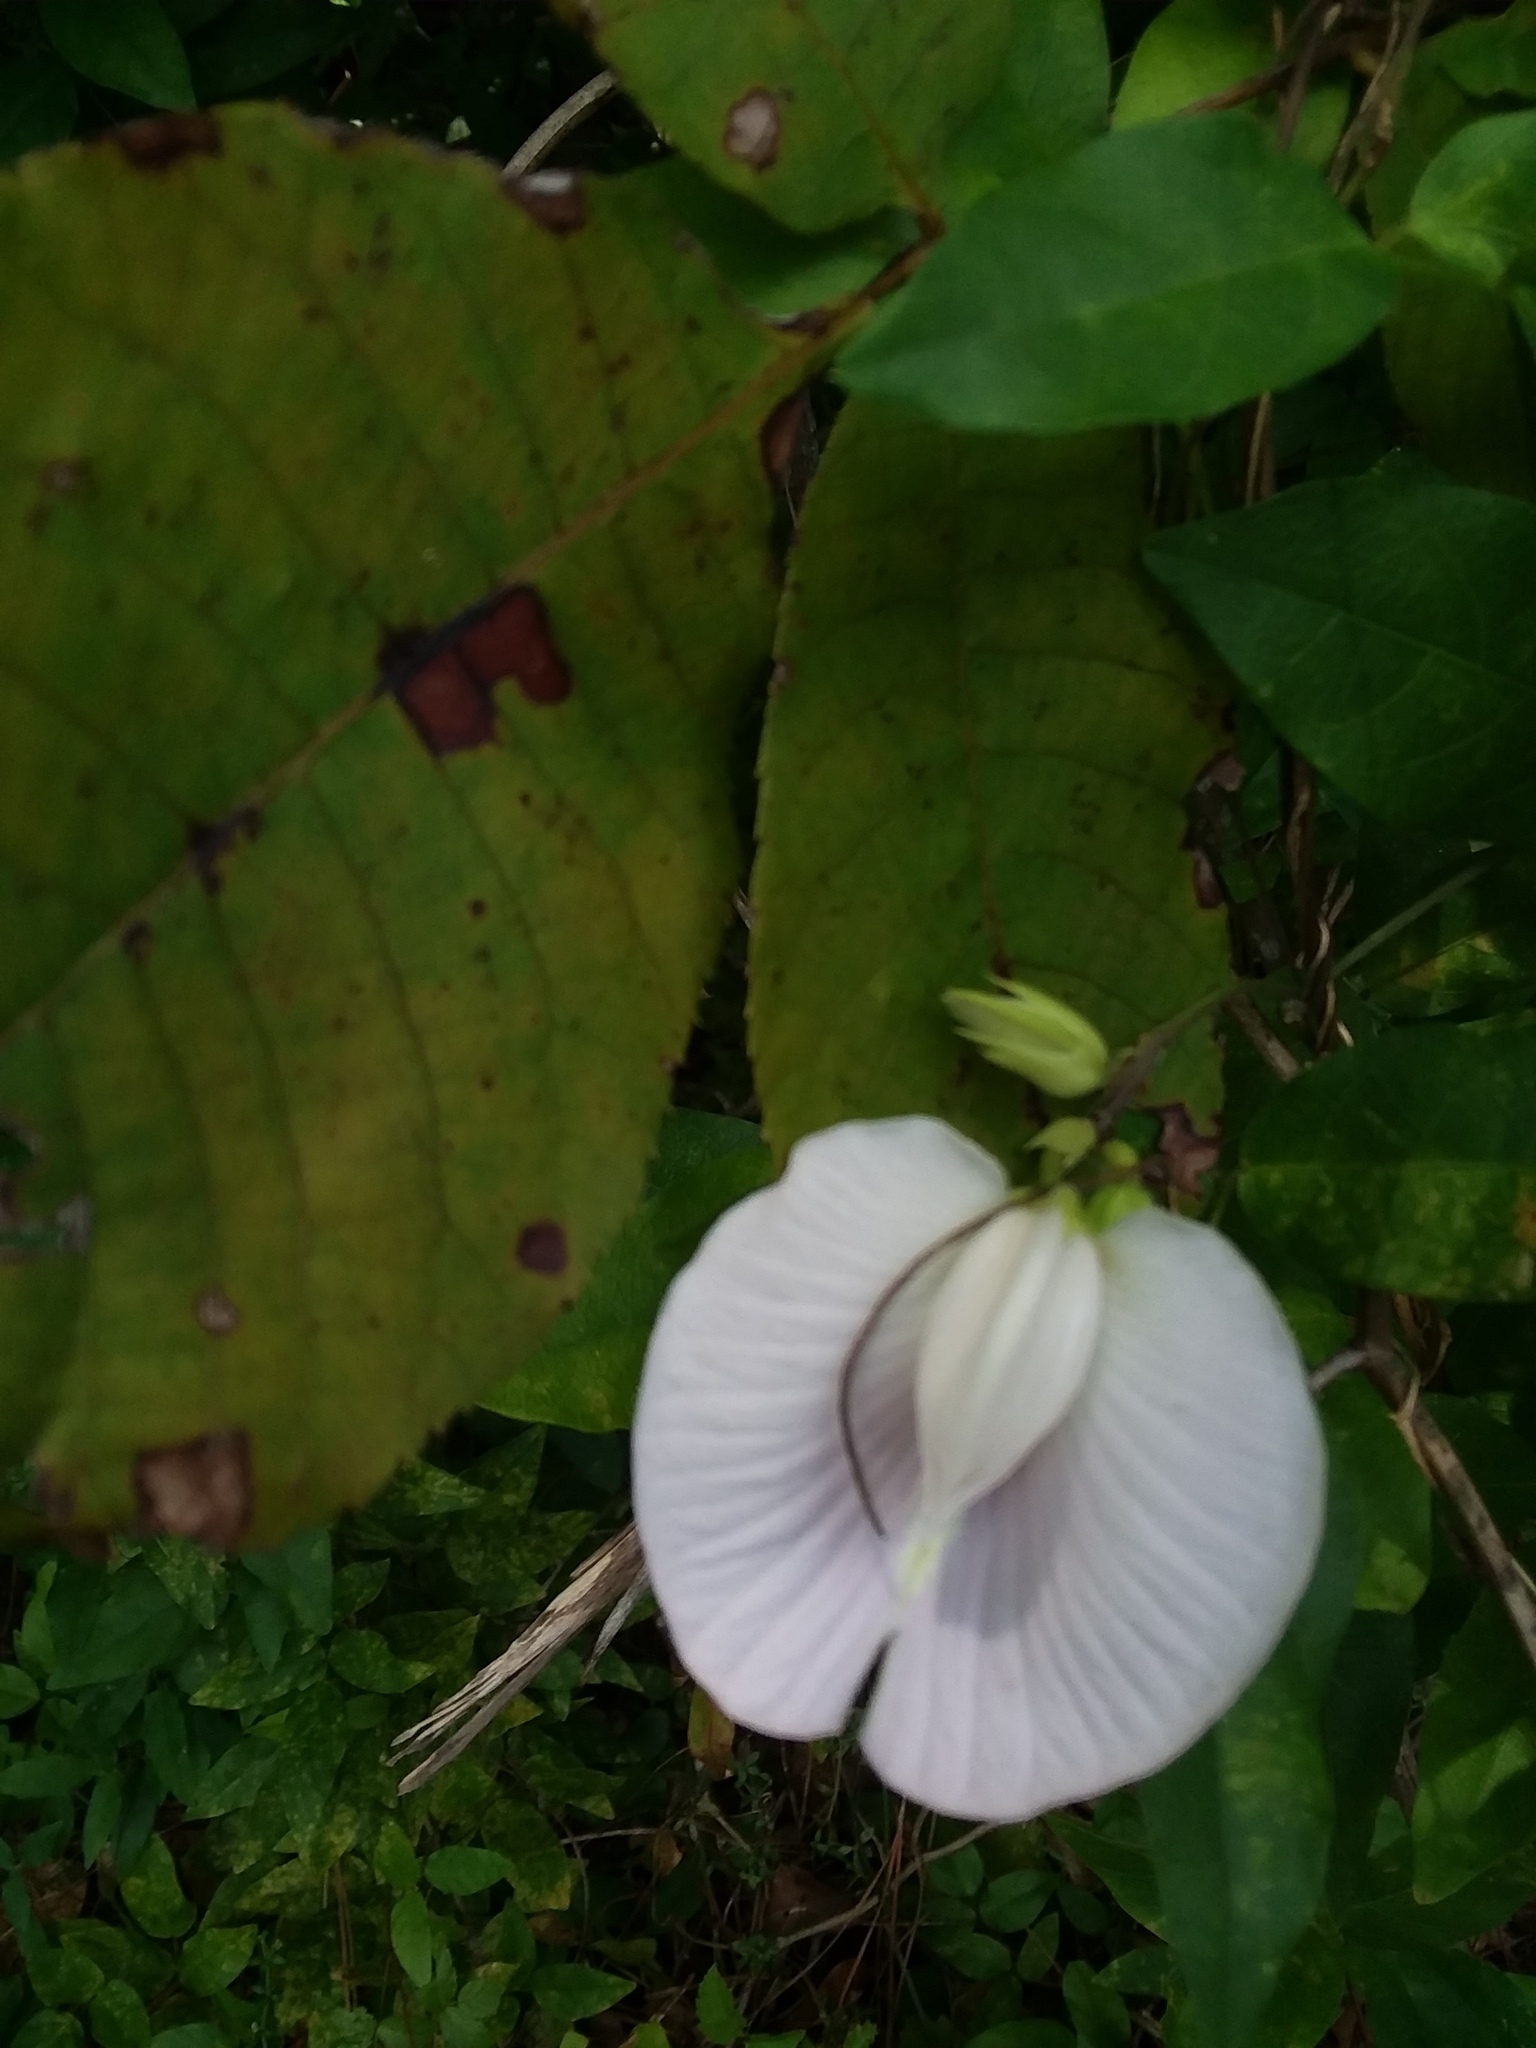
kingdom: Plantae
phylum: Tracheophyta
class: Magnoliopsida
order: Fabales
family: Fabaceae
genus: Centrosema
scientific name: Centrosema virginianum
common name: Butterfly-pea
